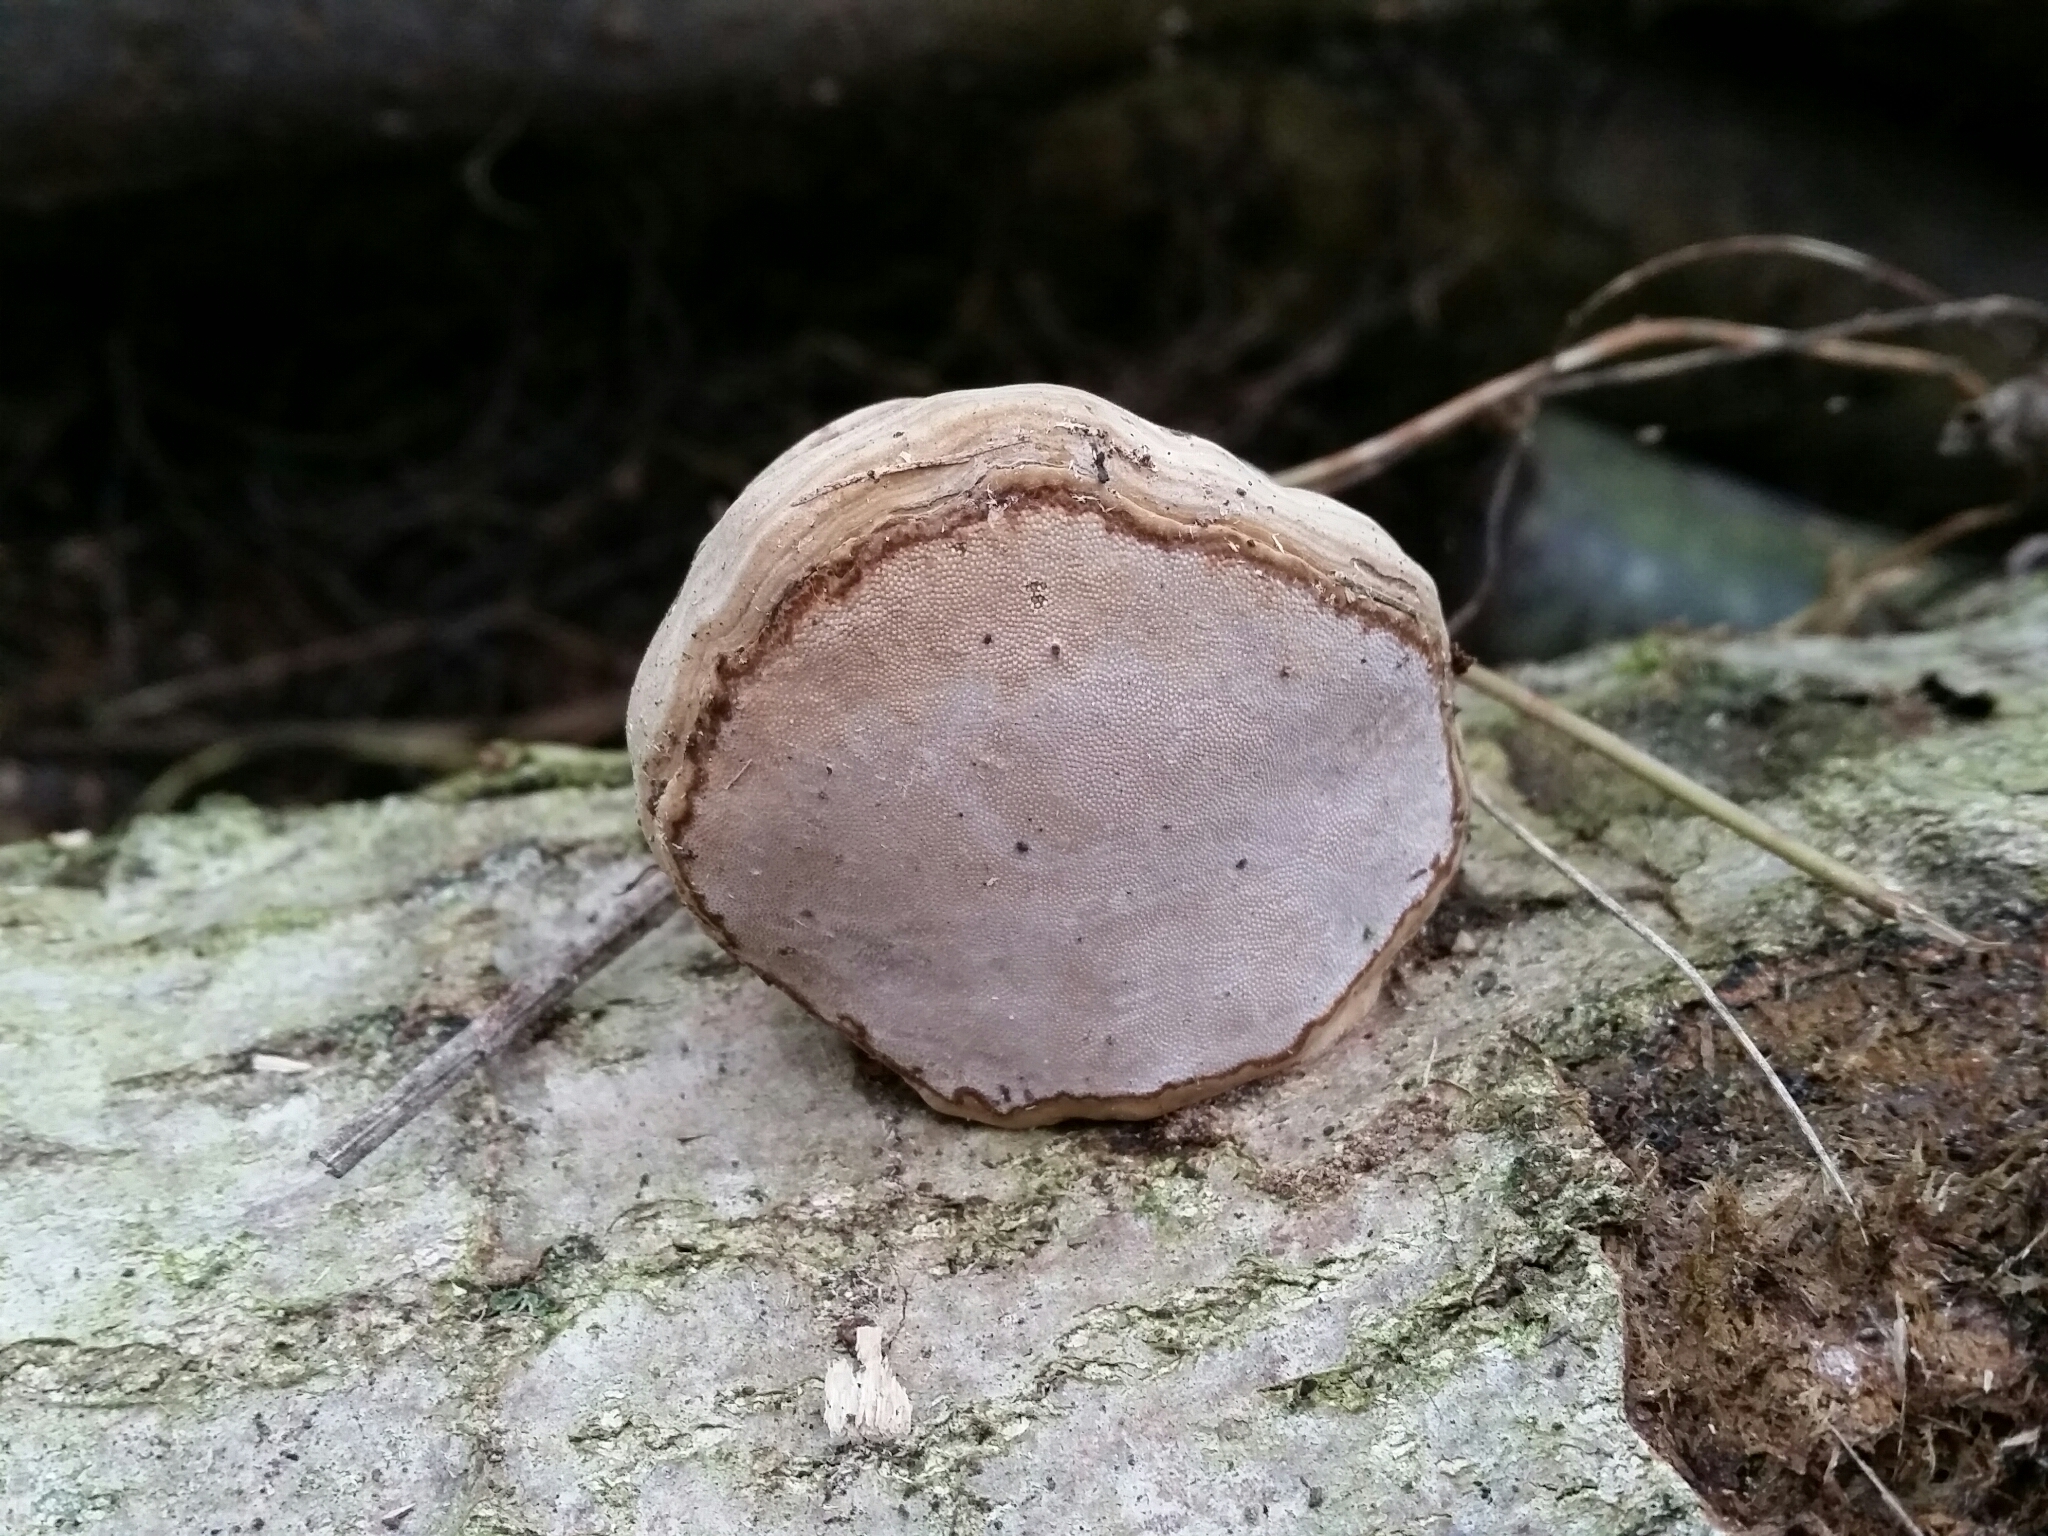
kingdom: Fungi
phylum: Basidiomycota
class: Agaricomycetes
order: Polyporales
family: Polyporaceae
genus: Fomes
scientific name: Fomes fomentarius
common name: Hoof fungus
